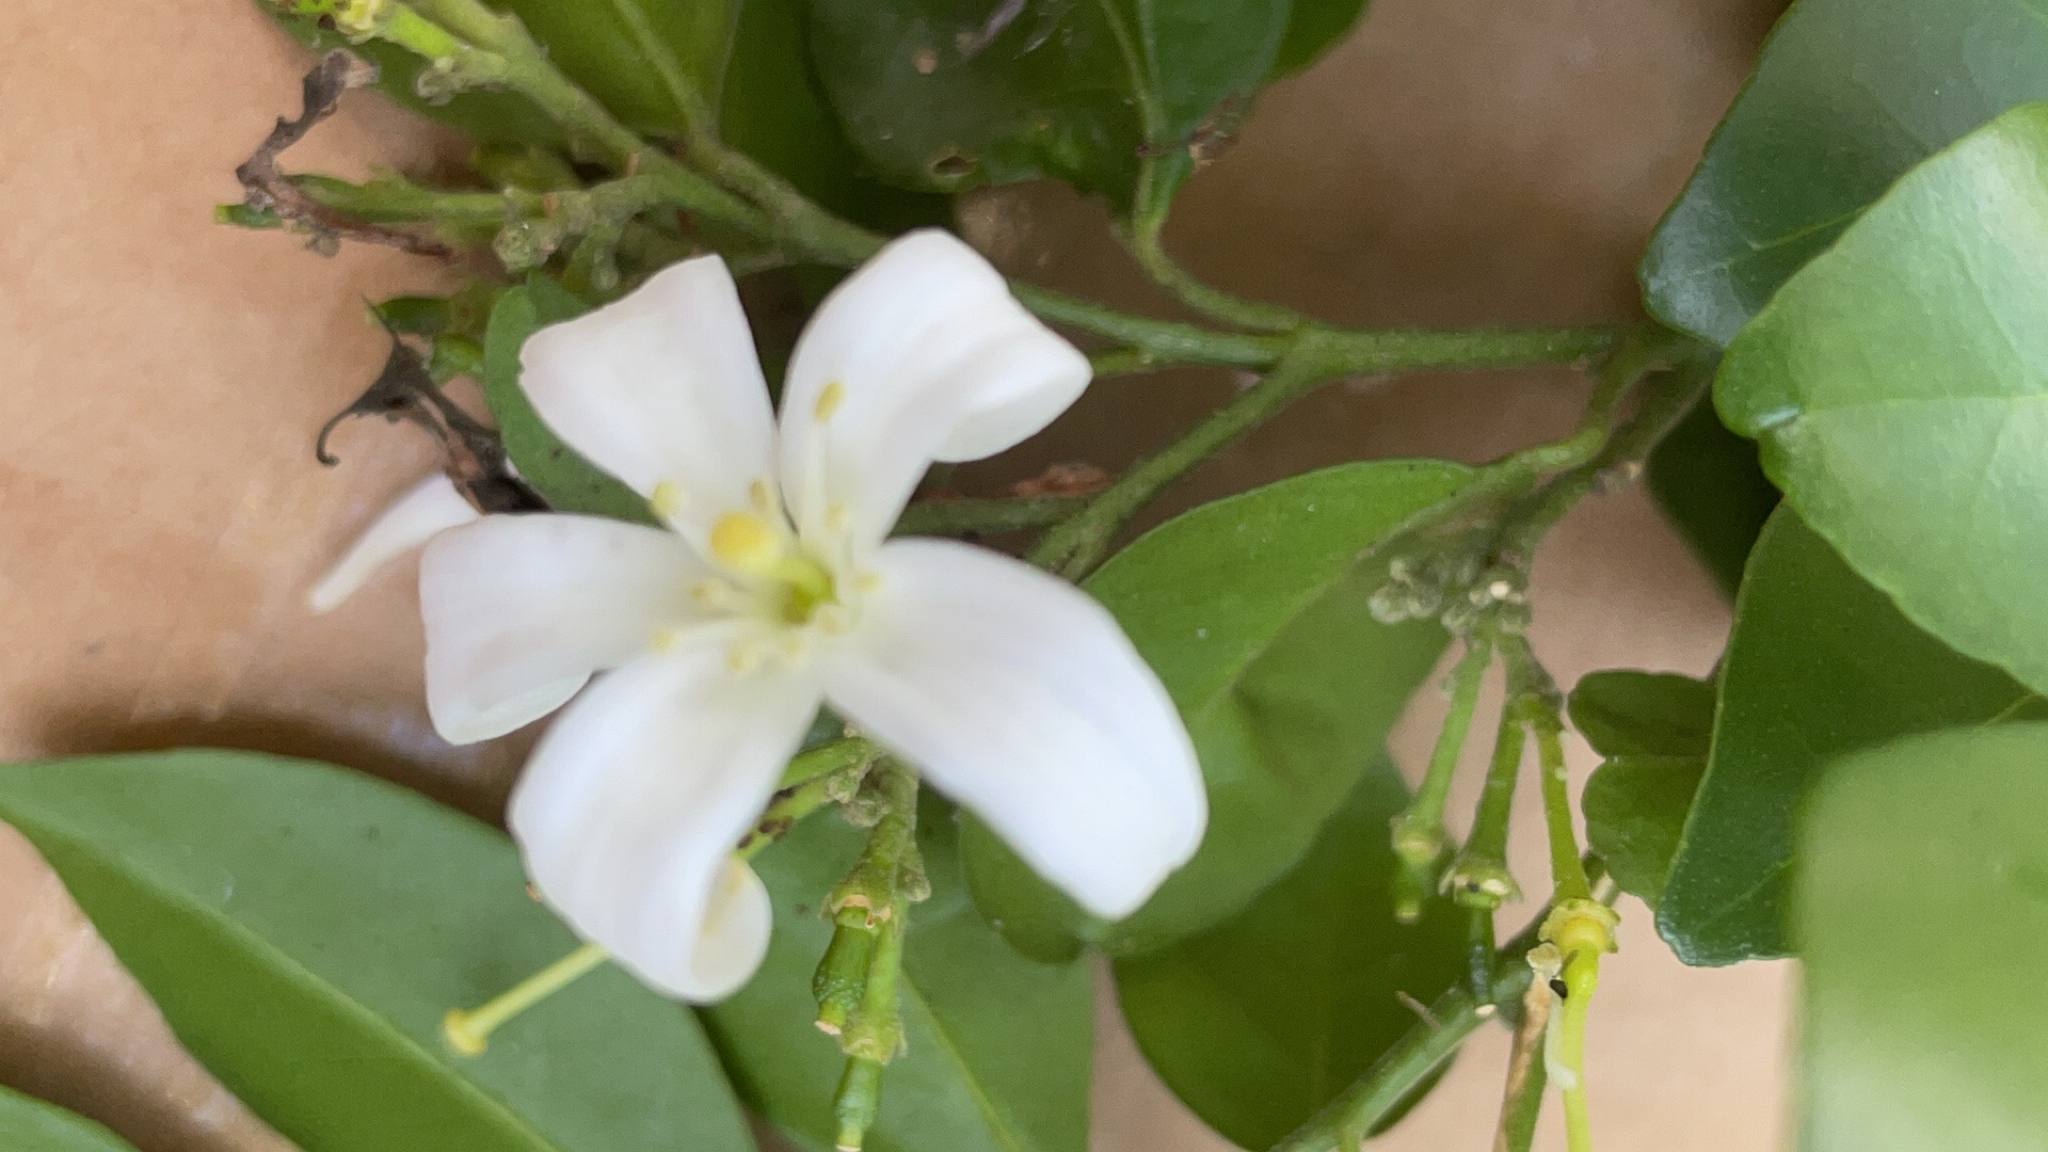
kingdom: Plantae
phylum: Tracheophyta
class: Magnoliopsida
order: Sapindales
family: Rutaceae
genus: Murraya
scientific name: Murraya paniculata
